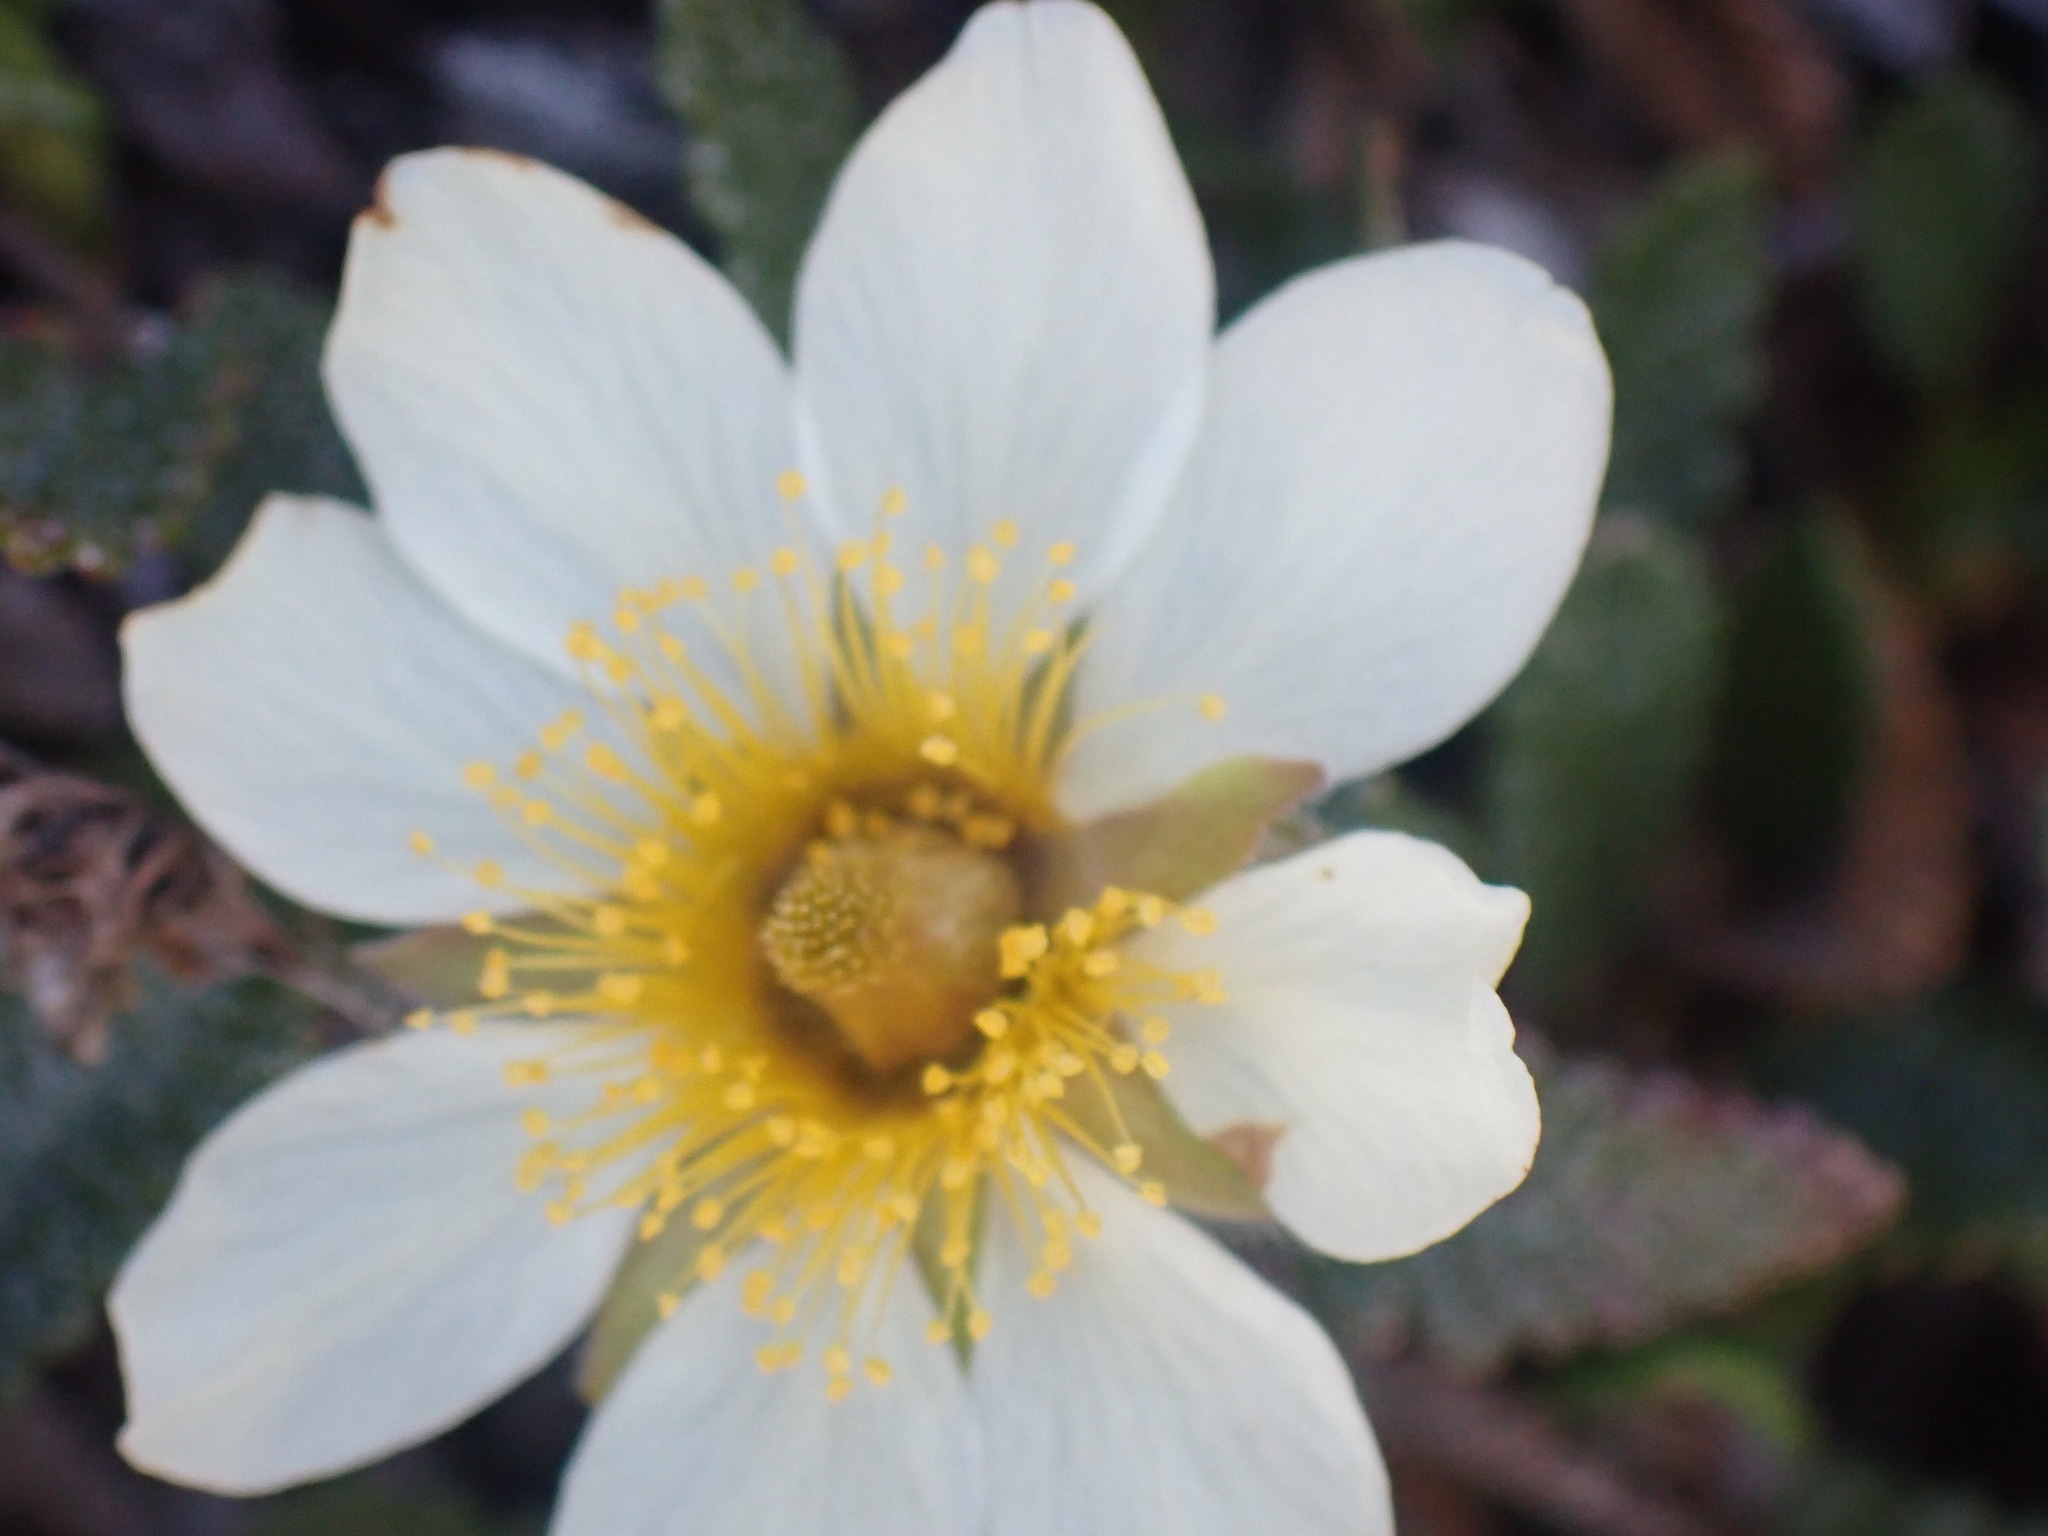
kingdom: Plantae
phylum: Tracheophyta
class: Magnoliopsida
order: Rosales
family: Rosaceae
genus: Dryas
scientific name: Dryas octopetala
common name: Eight-petal mountain-avens
